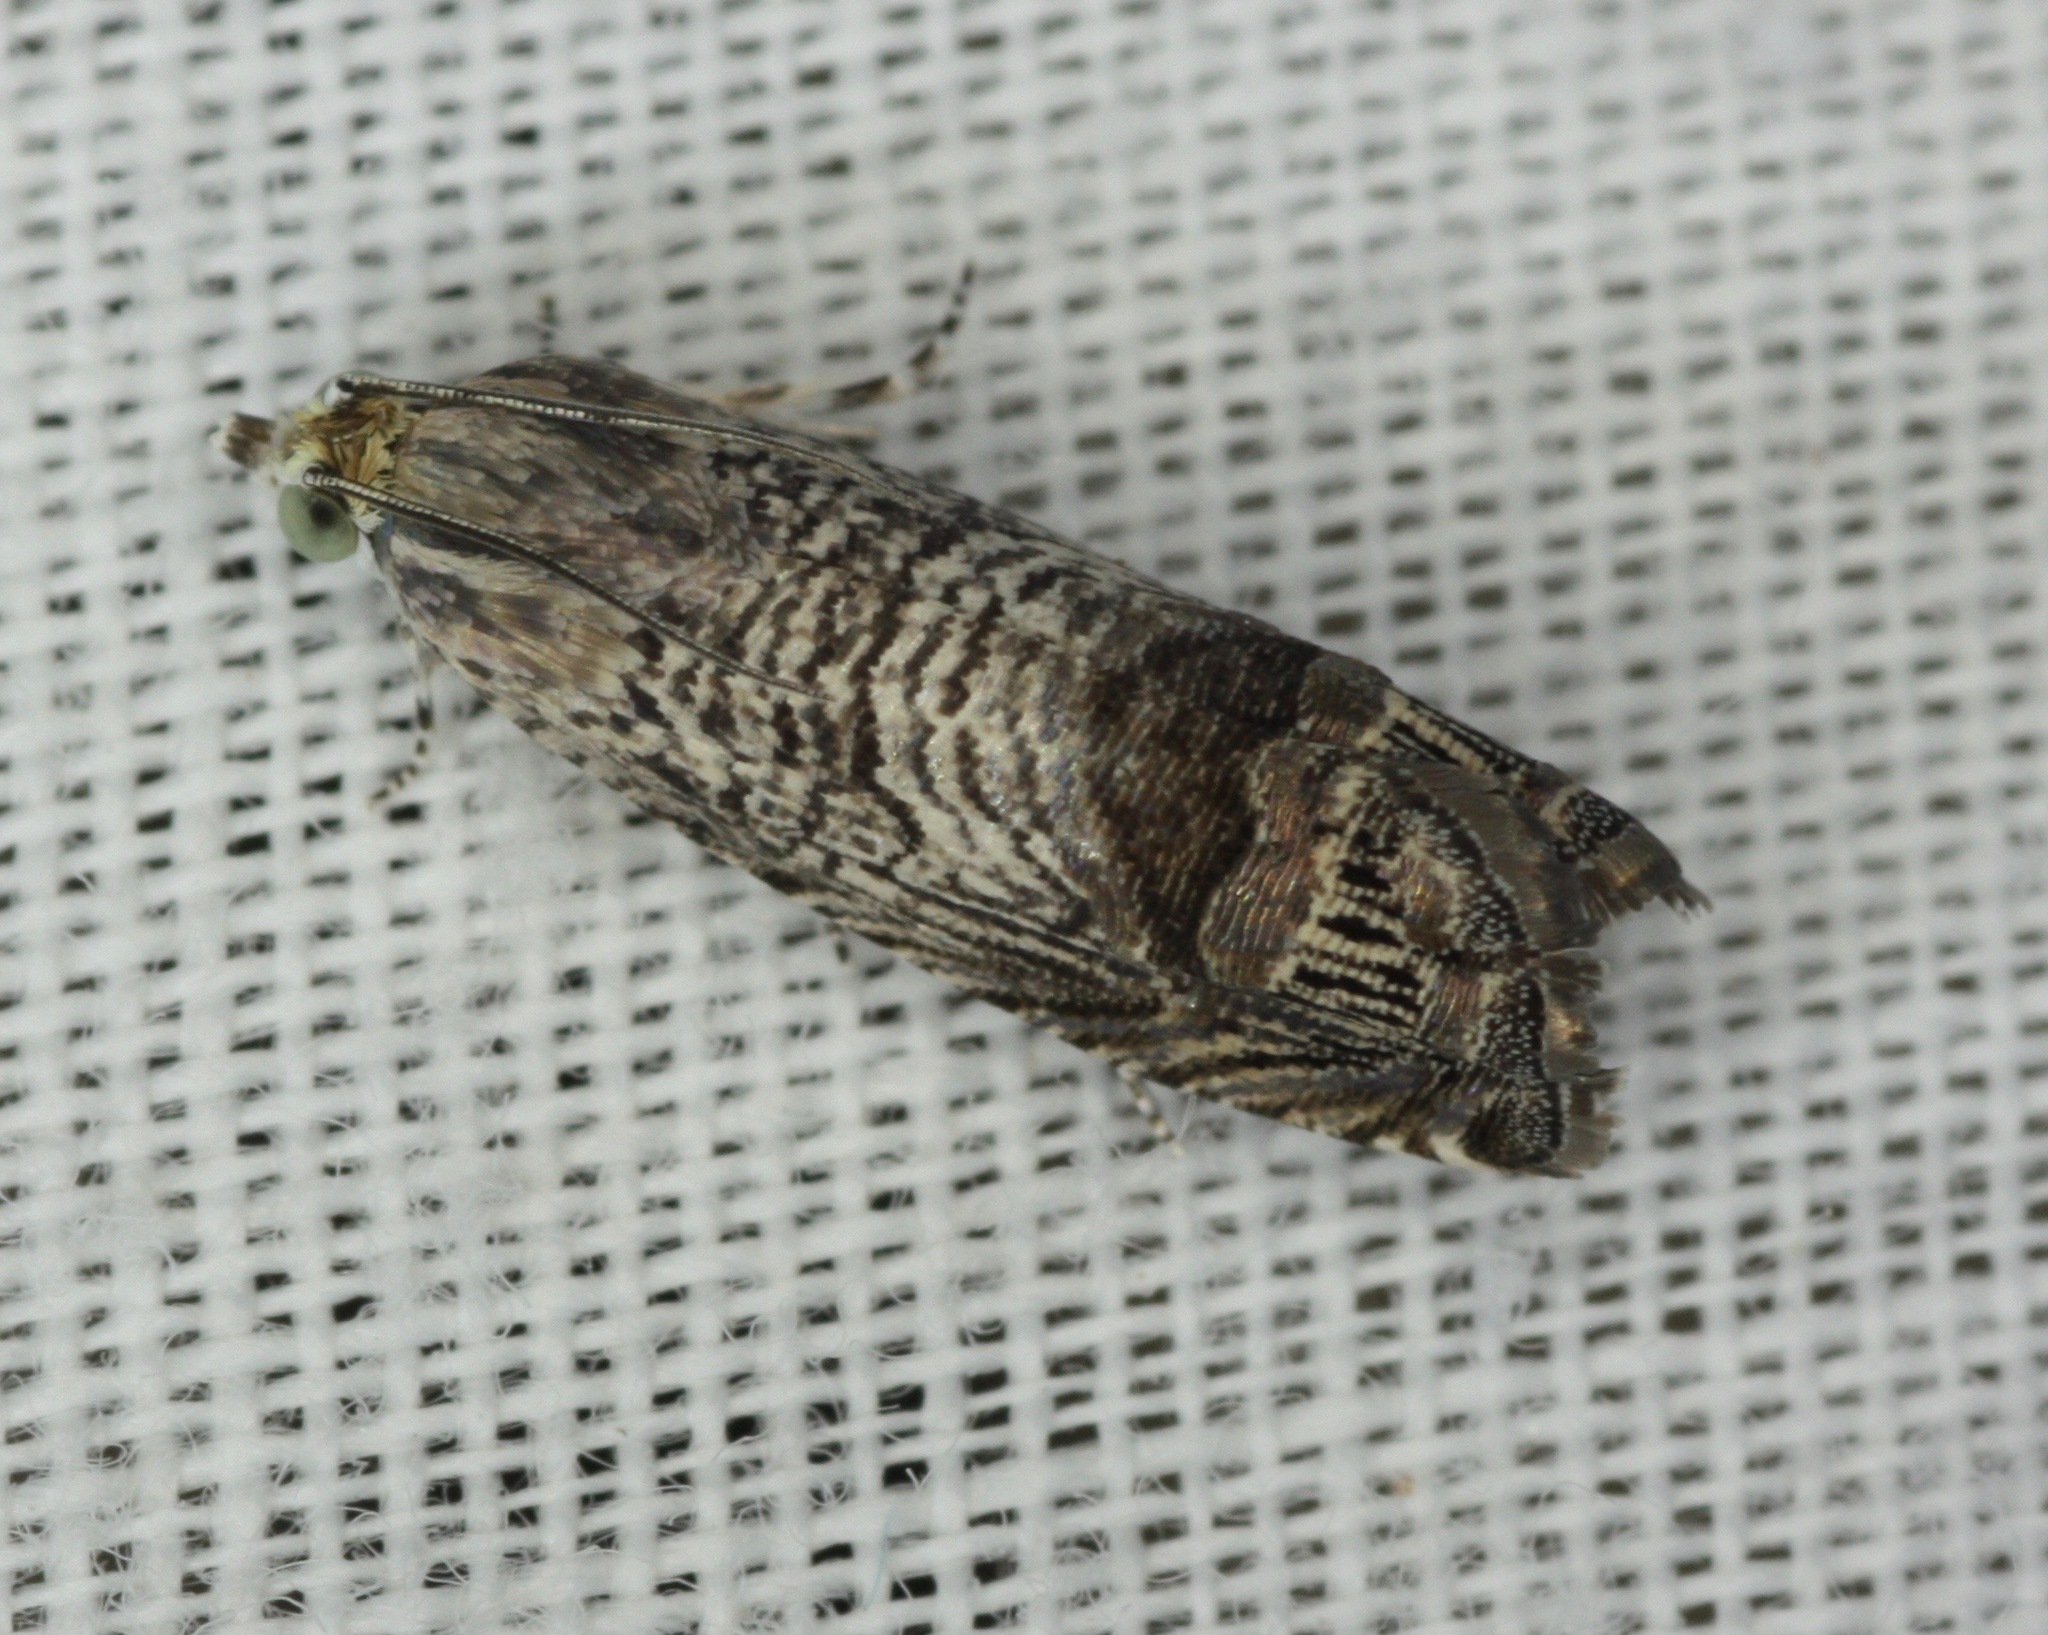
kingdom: Animalia
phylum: Arthropoda
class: Insecta
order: Lepidoptera
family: Tortricidae
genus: Ofatulena
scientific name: Ofatulena duodecemstriata
